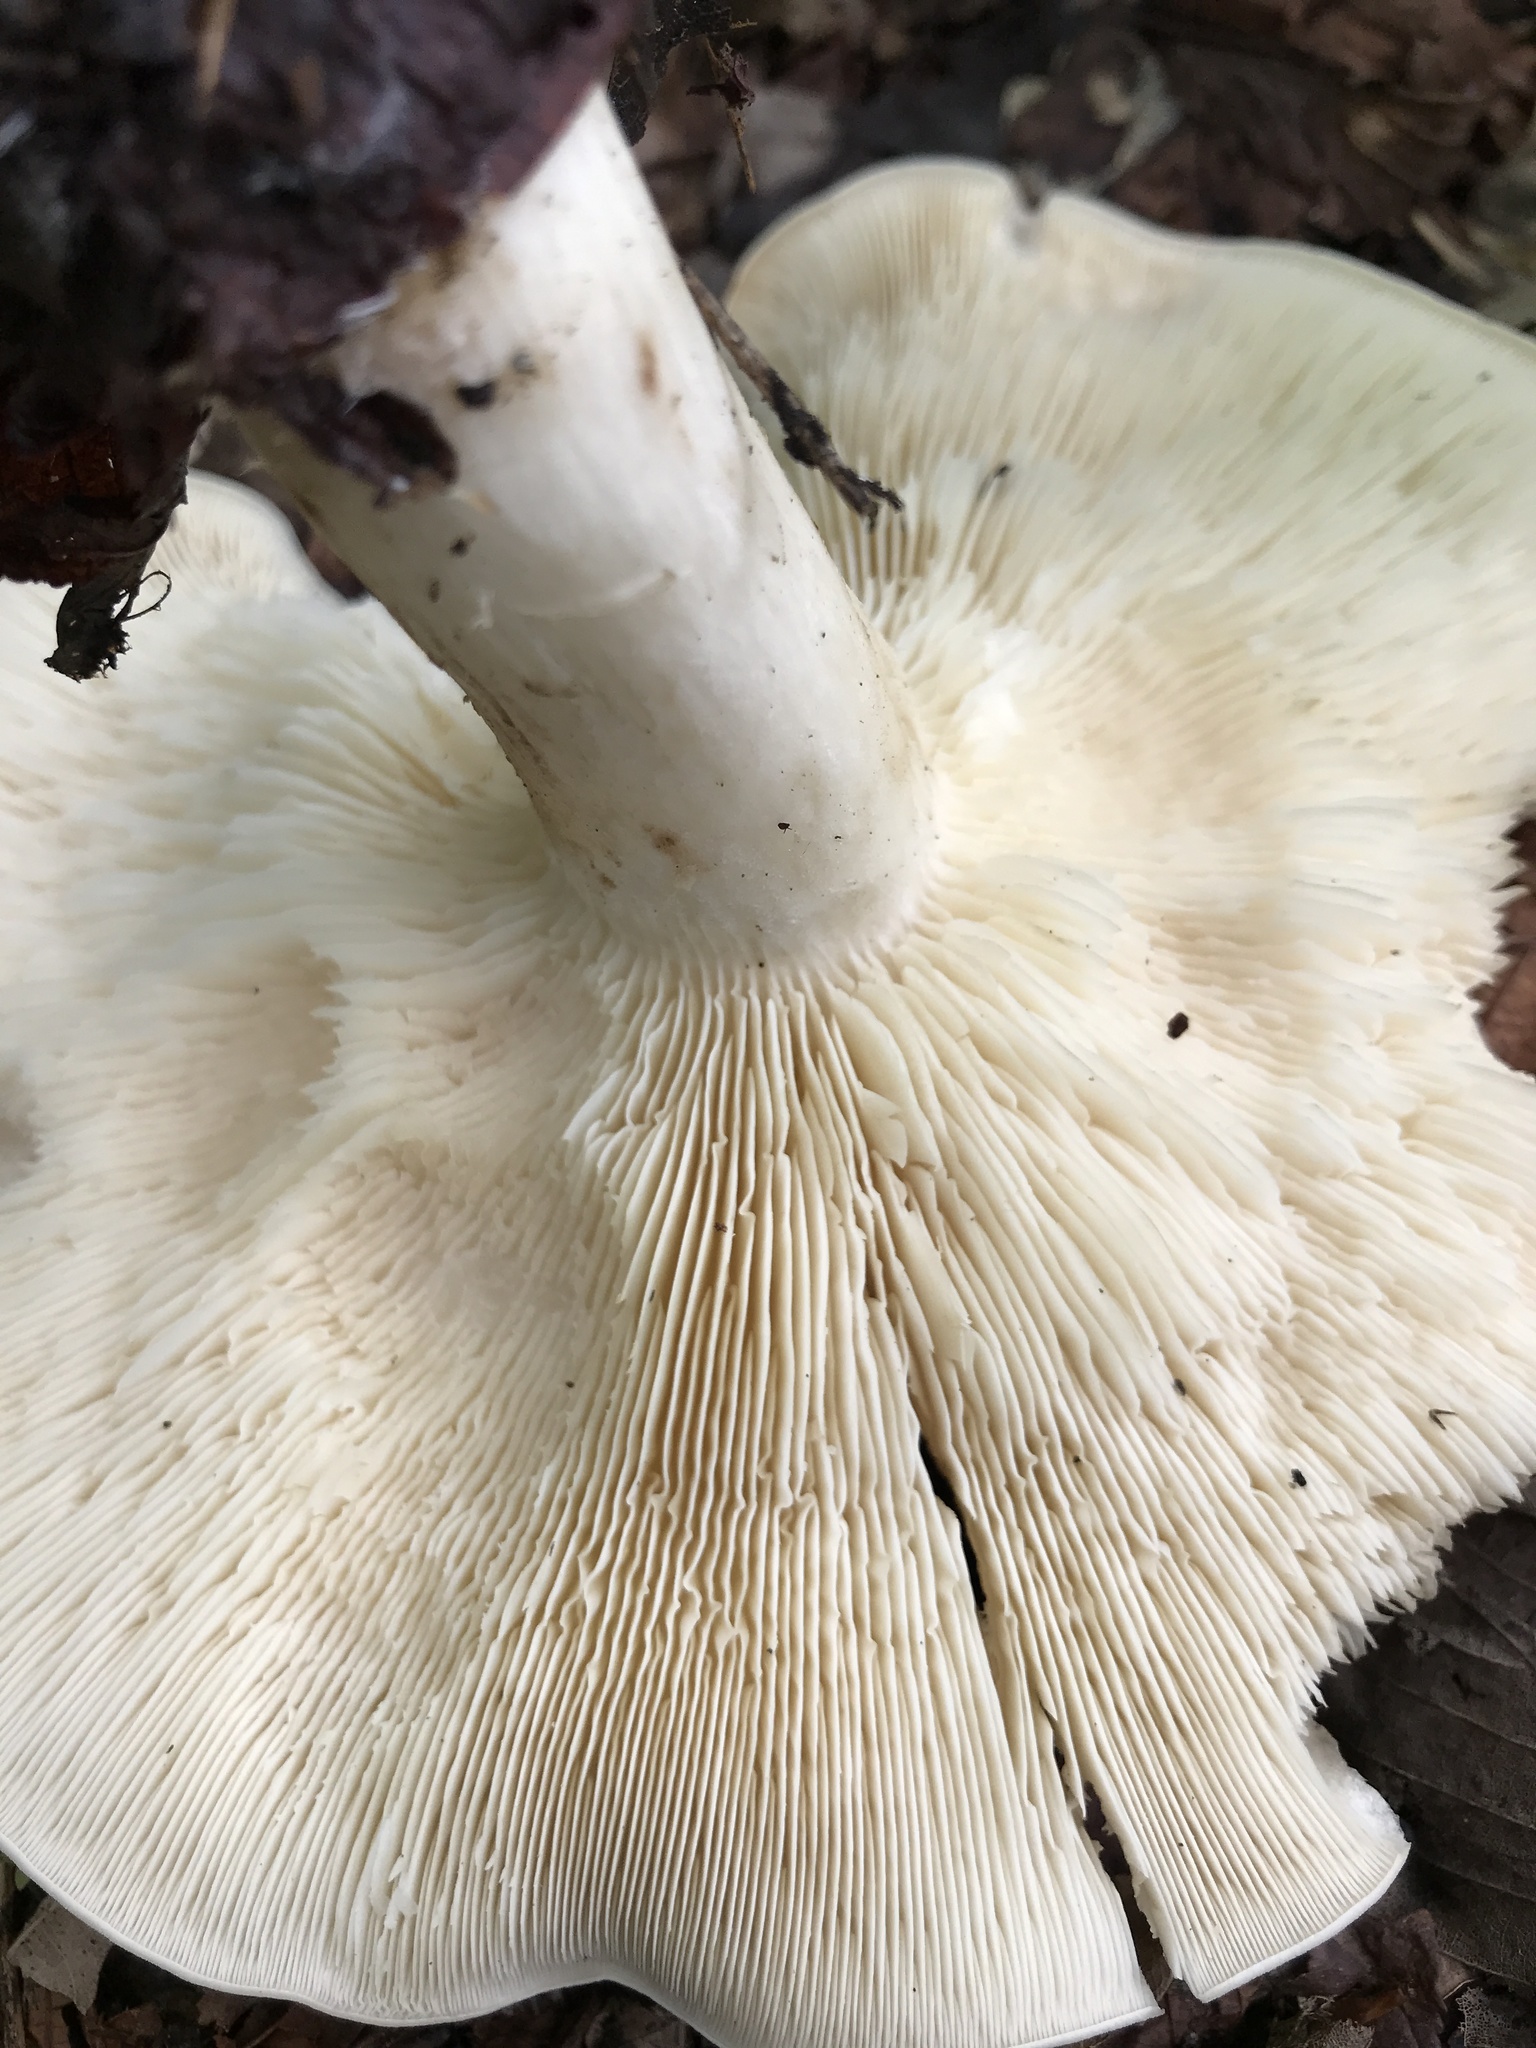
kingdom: Fungi
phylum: Basidiomycota
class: Agaricomycetes
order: Agaricales
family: Lyophyllaceae
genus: Calocybe
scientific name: Calocybe gambosa
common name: St. george's mushroom
